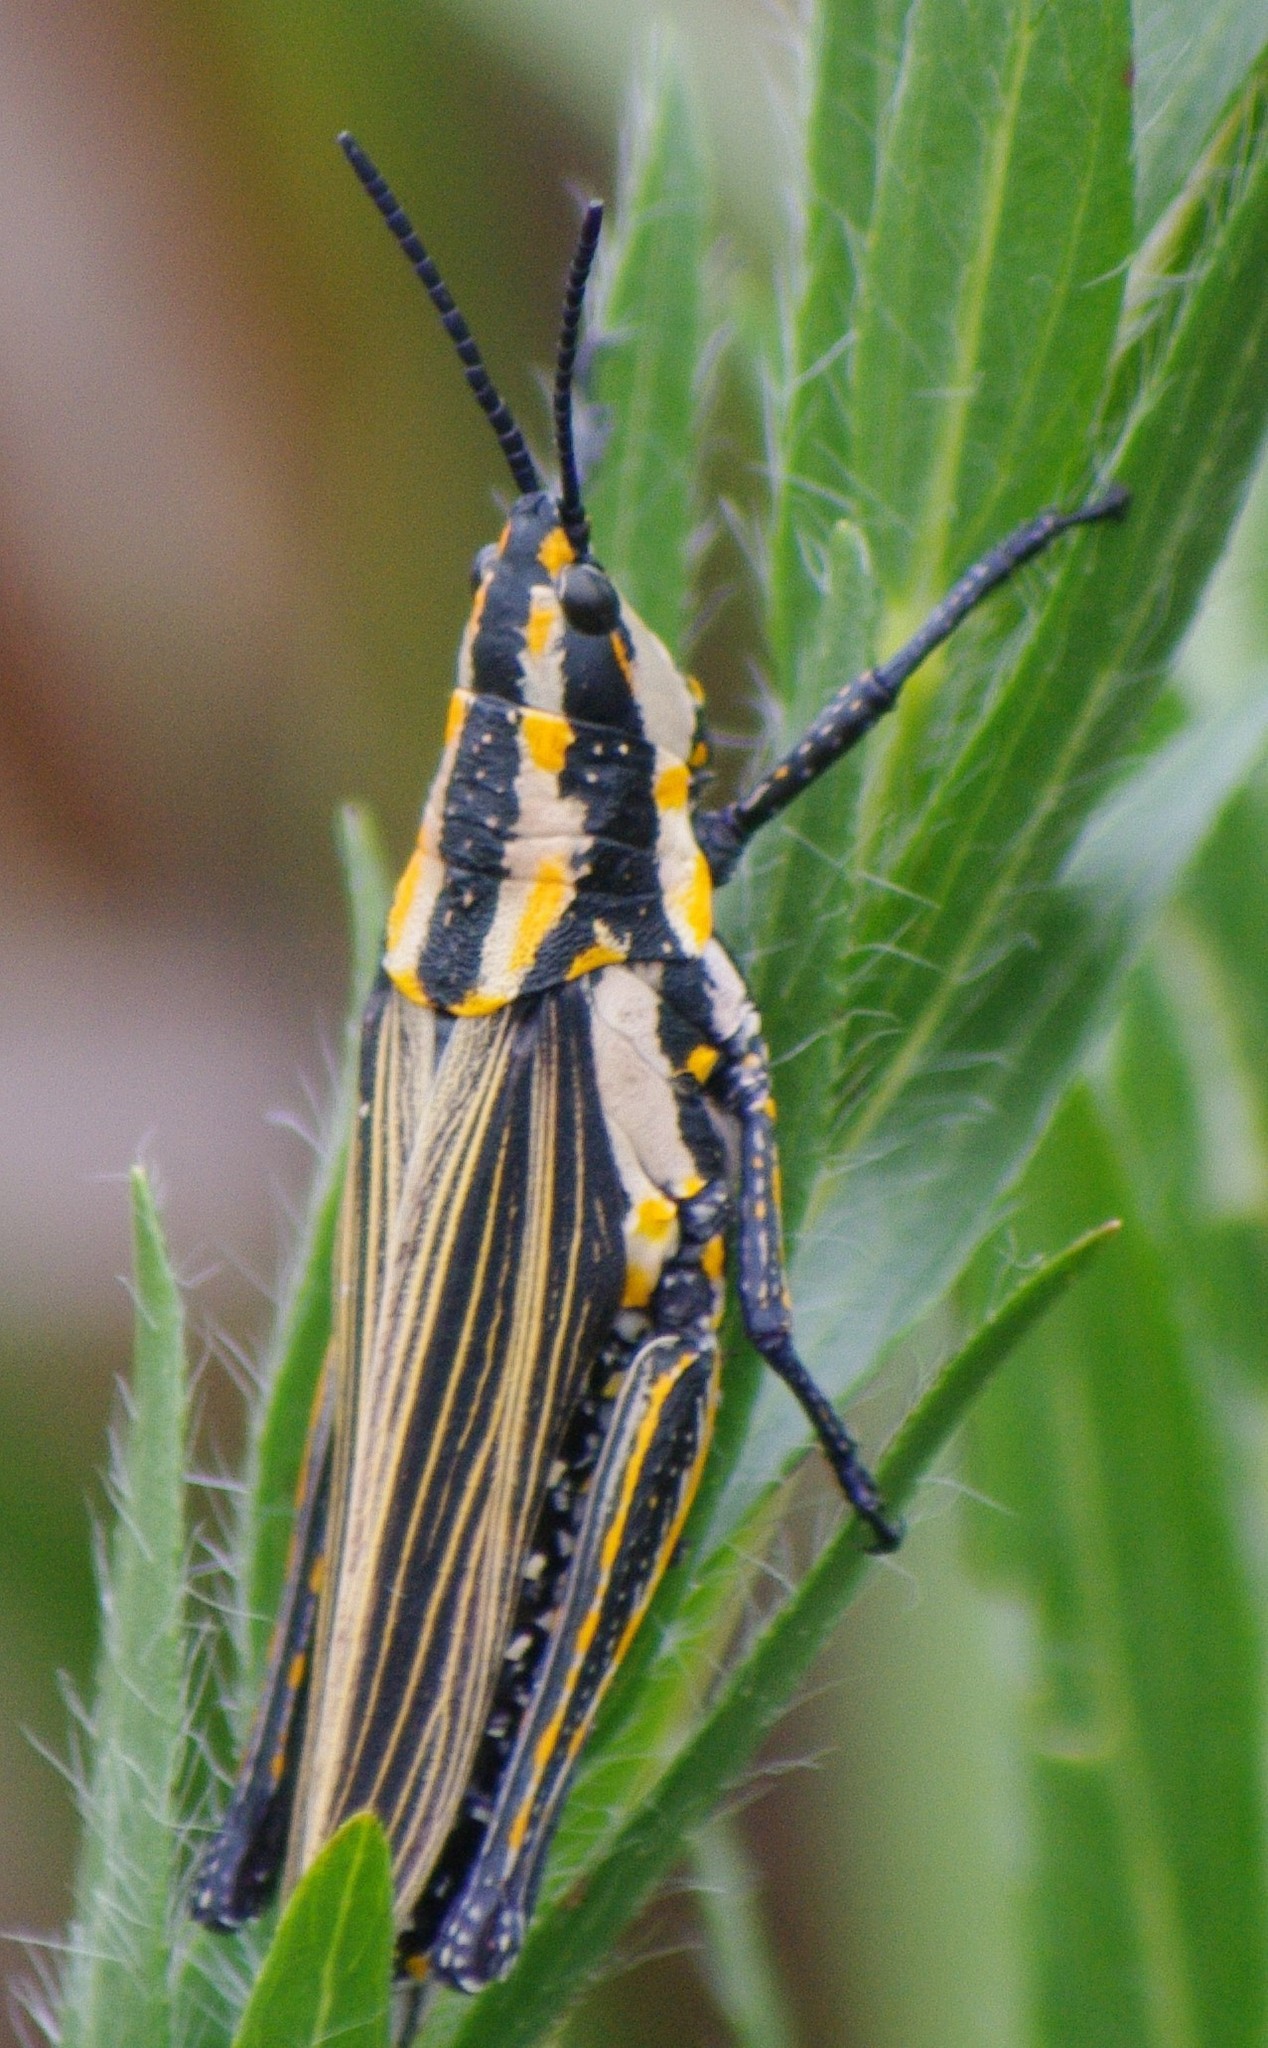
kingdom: Animalia
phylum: Arthropoda
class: Insecta
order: Orthoptera
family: Pyrgomorphidae
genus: Ochrophlebia
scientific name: Ochrophlebia cafra
